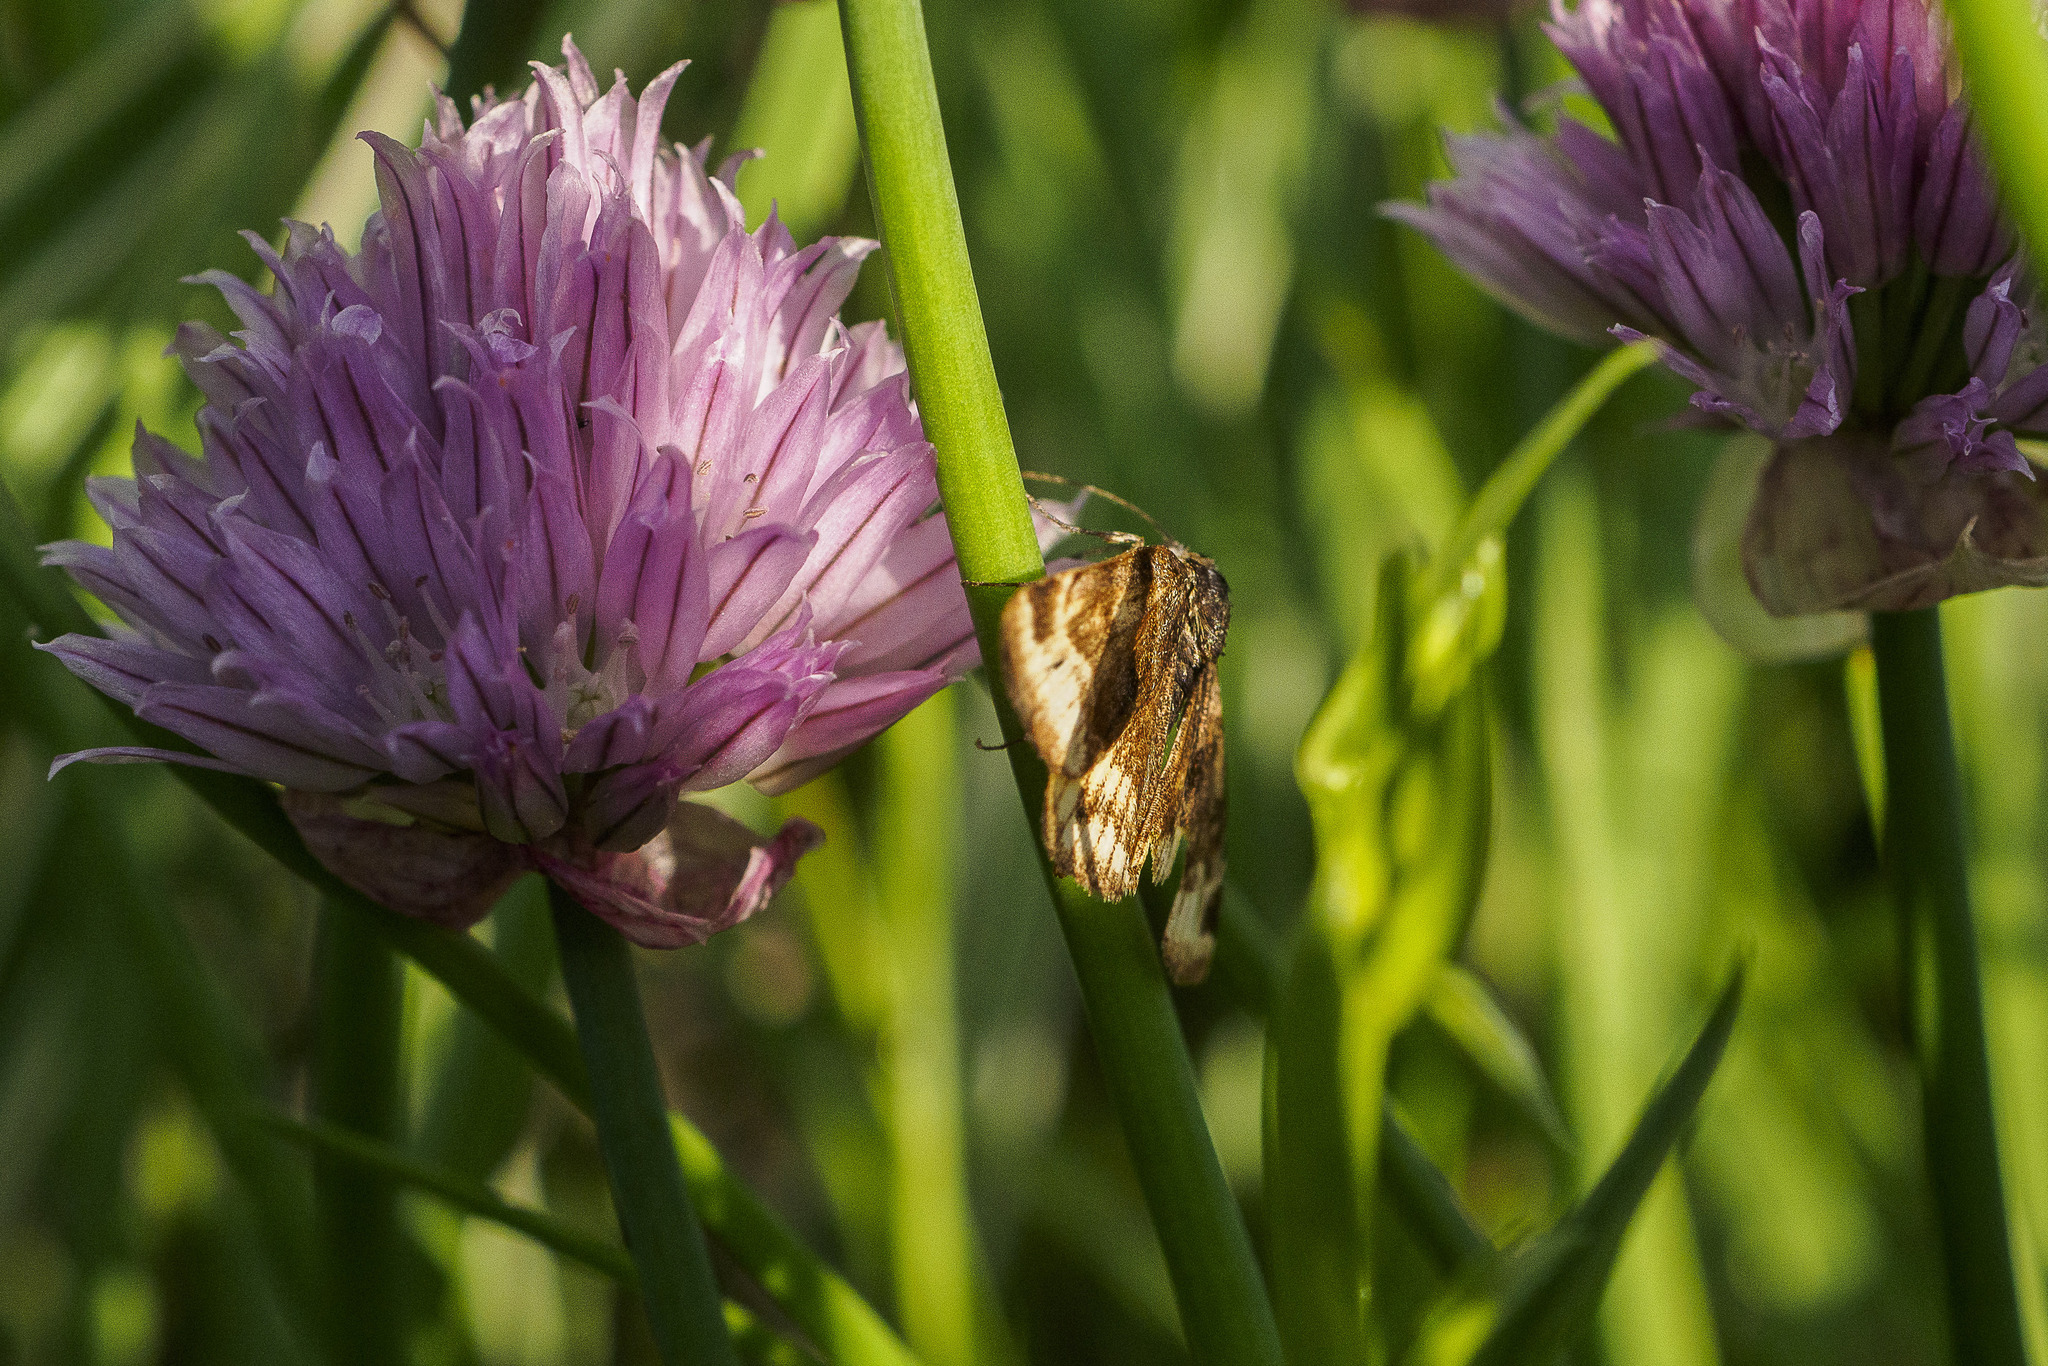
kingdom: Animalia
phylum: Arthropoda
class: Insecta
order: Lepidoptera
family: Erebidae
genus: Euclidia
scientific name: Euclidia glyphica
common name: Burnet companion
